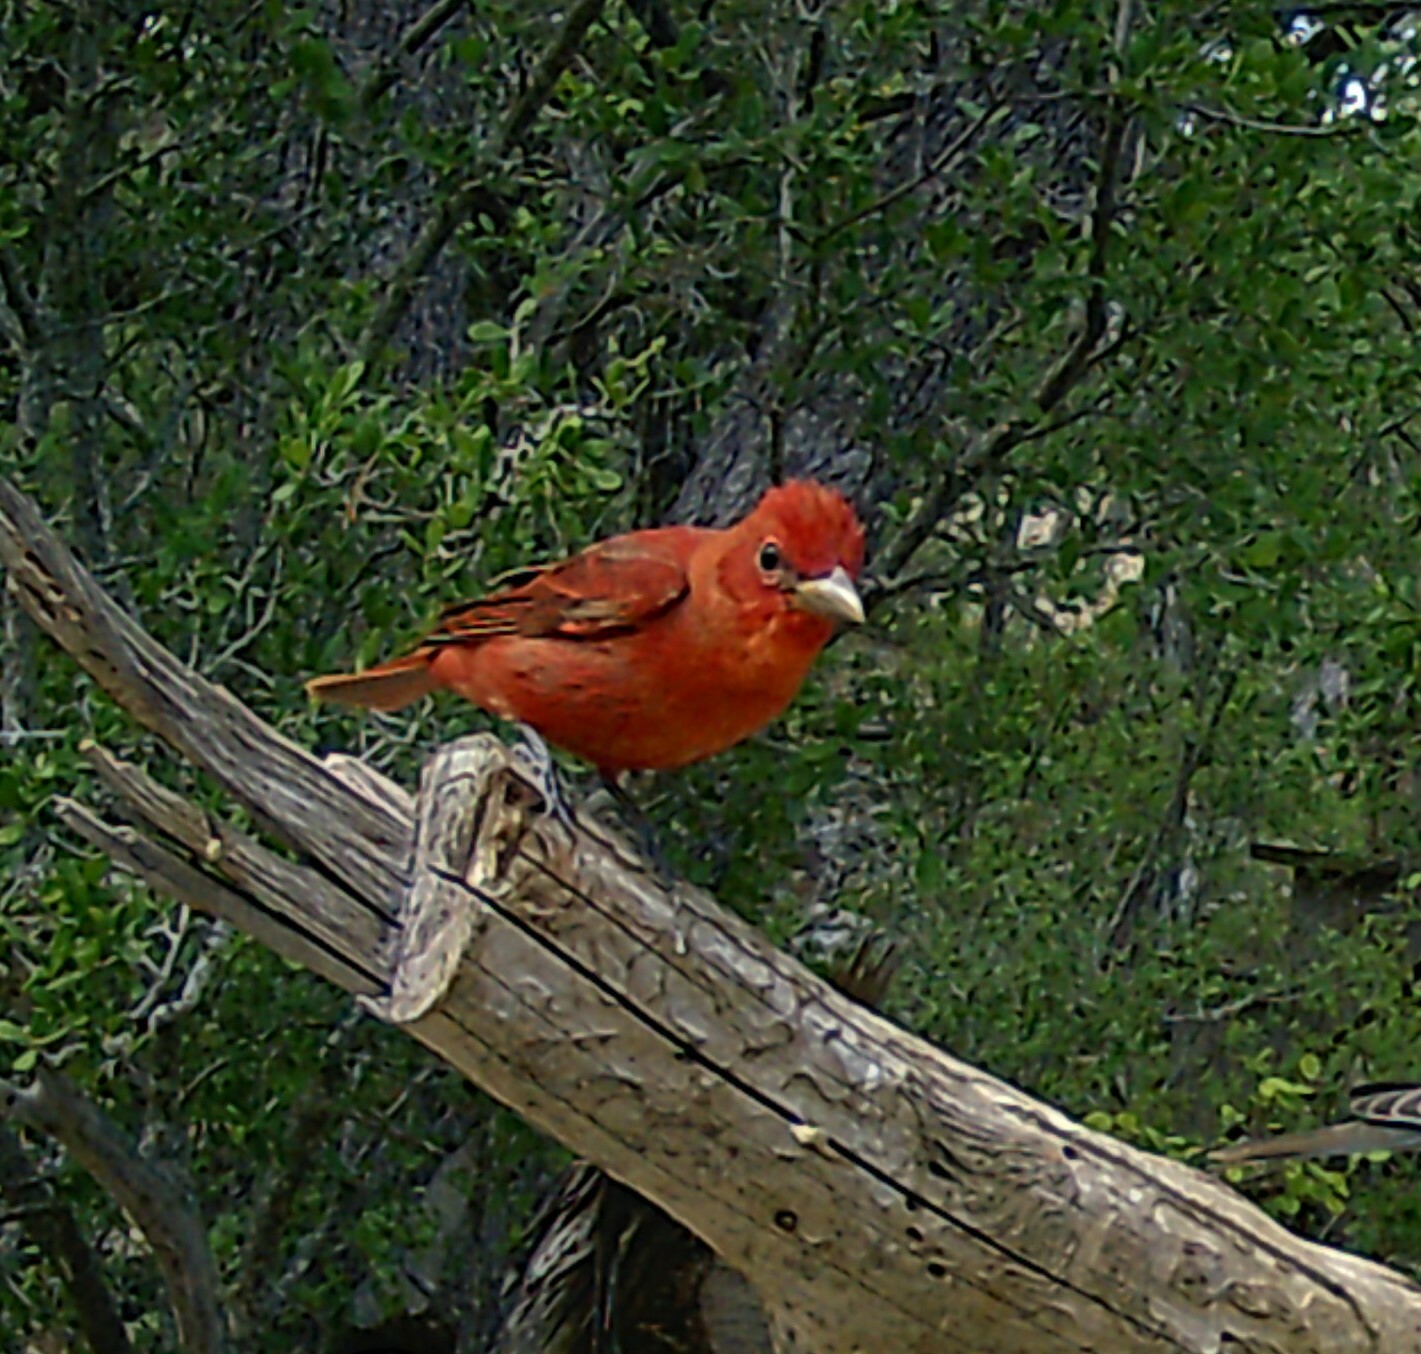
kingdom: Animalia
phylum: Chordata
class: Aves
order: Passeriformes
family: Cardinalidae
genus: Piranga
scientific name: Piranga rubra
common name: Summer tanager
